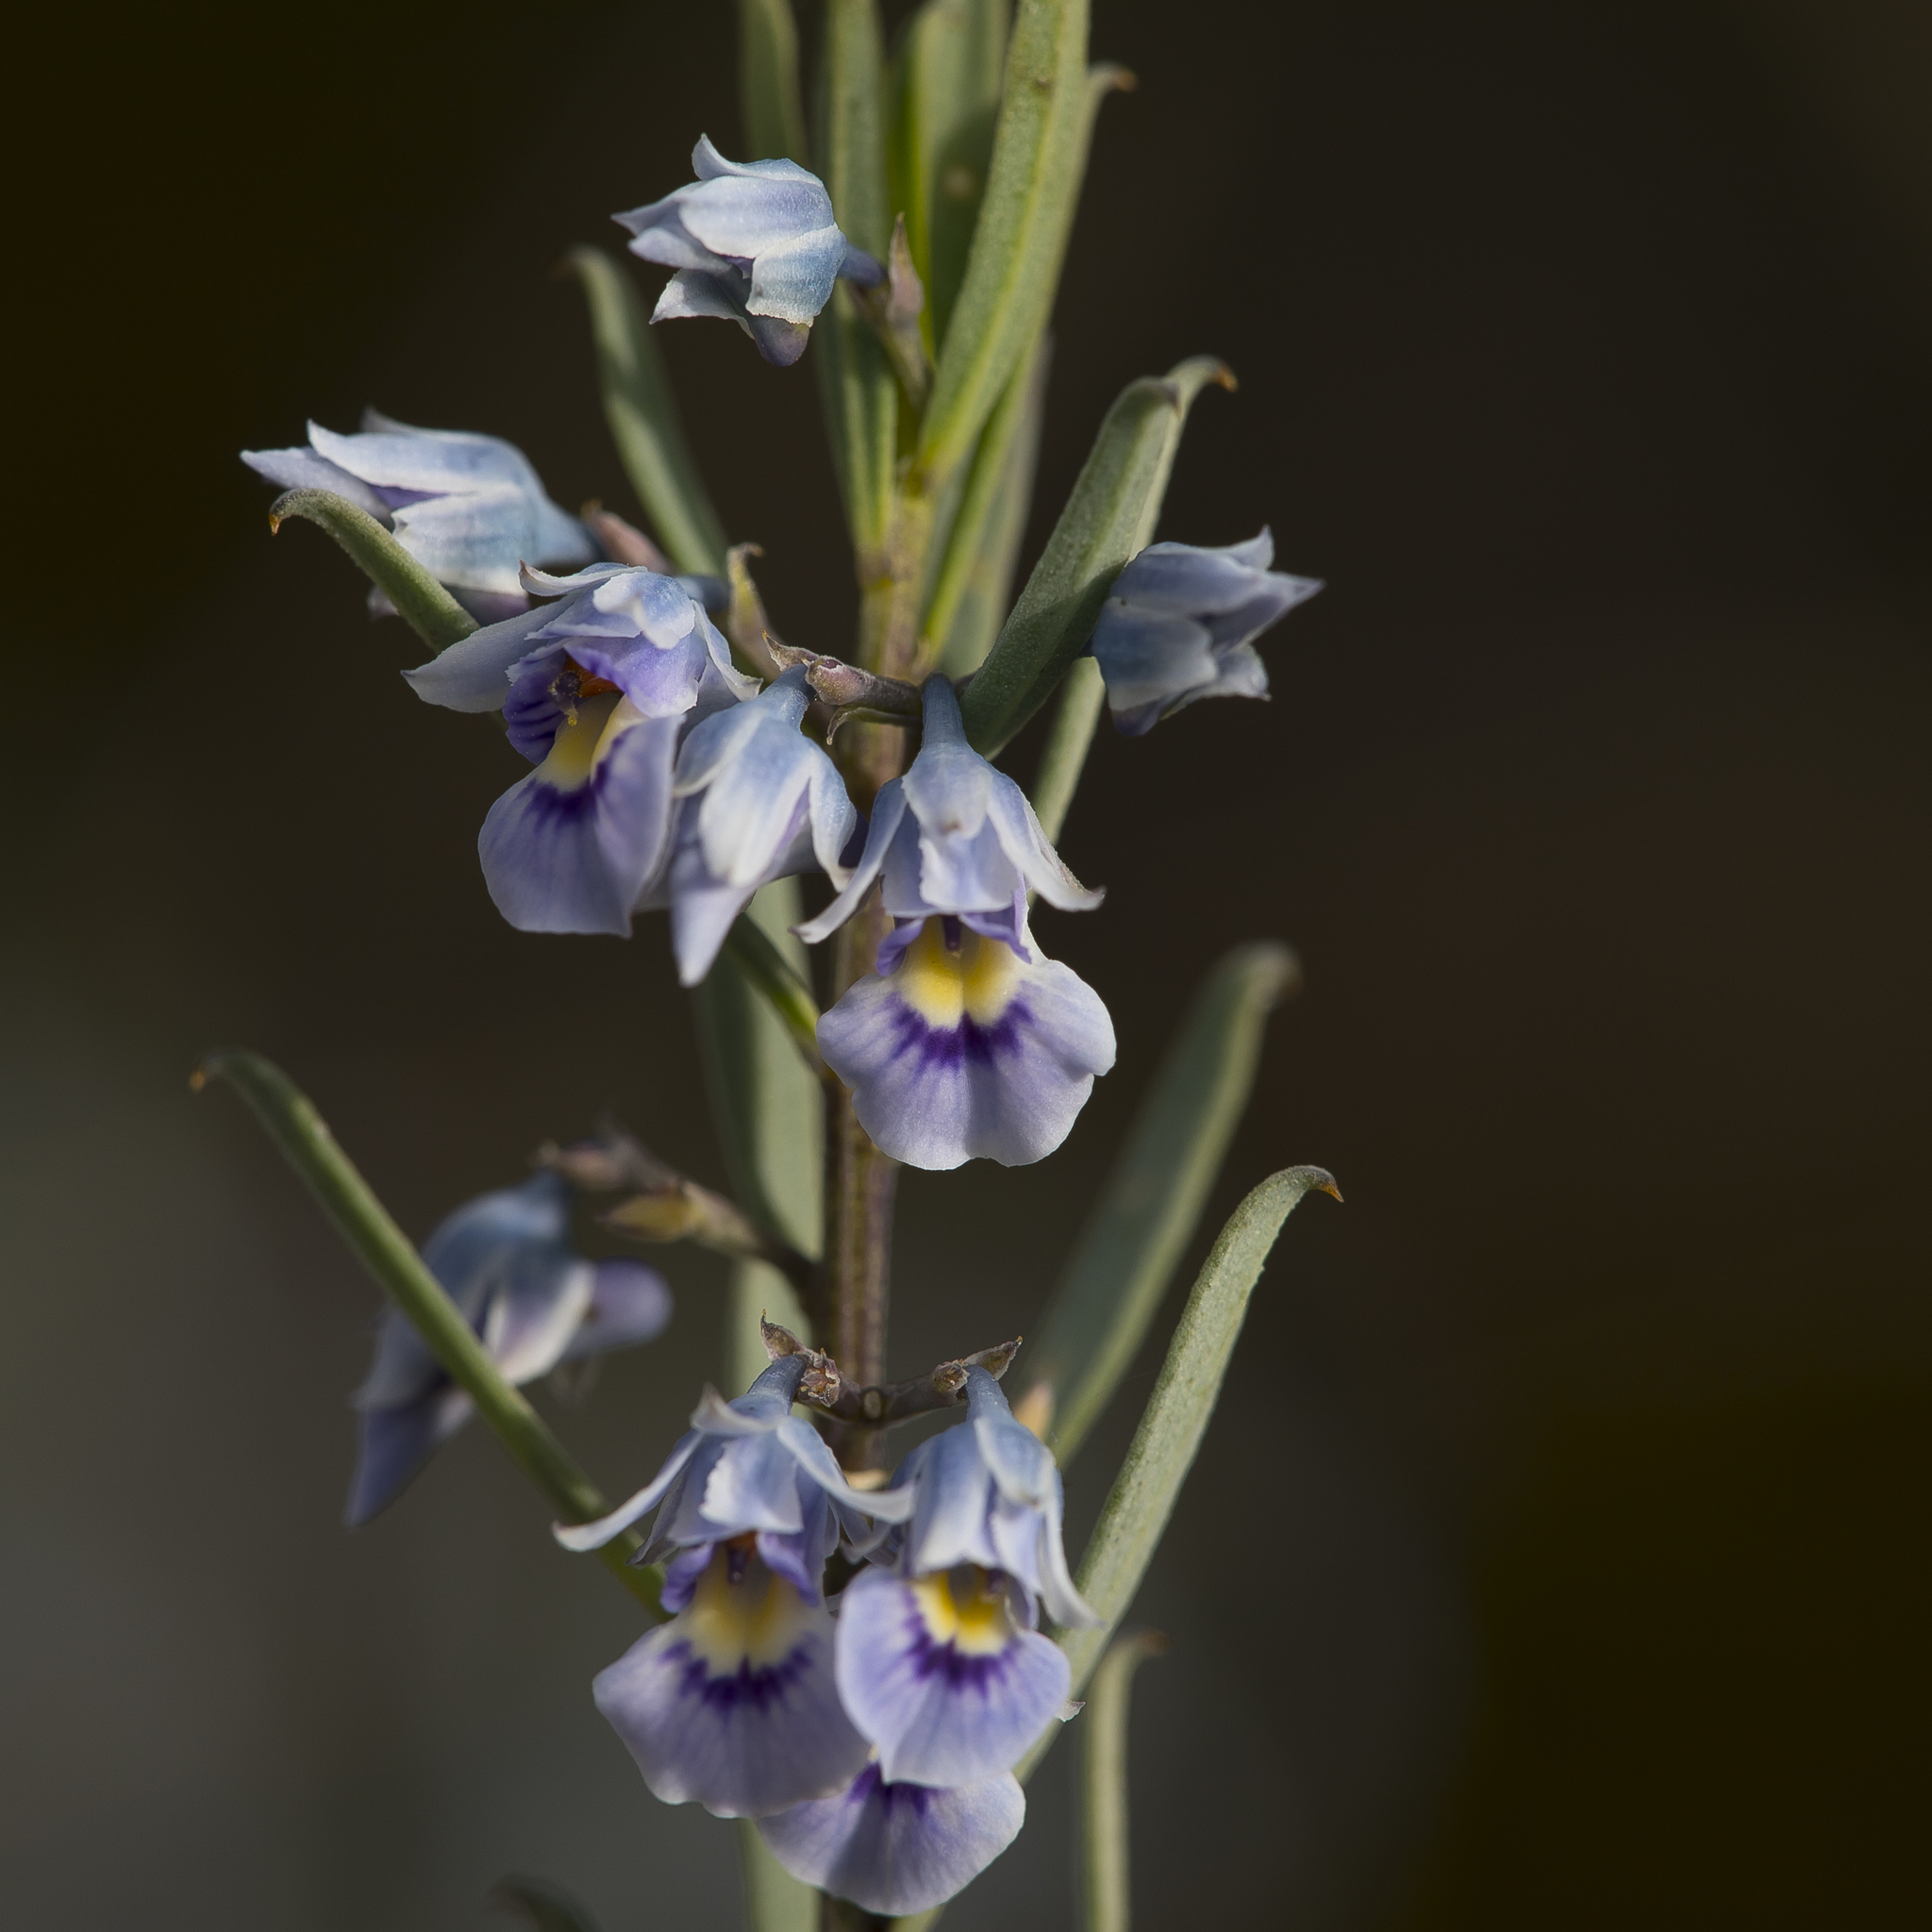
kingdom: Plantae
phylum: Tracheophyta
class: Magnoliopsida
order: Malpighiales
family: Violaceae
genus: Pigea
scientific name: Pigea floribunda
